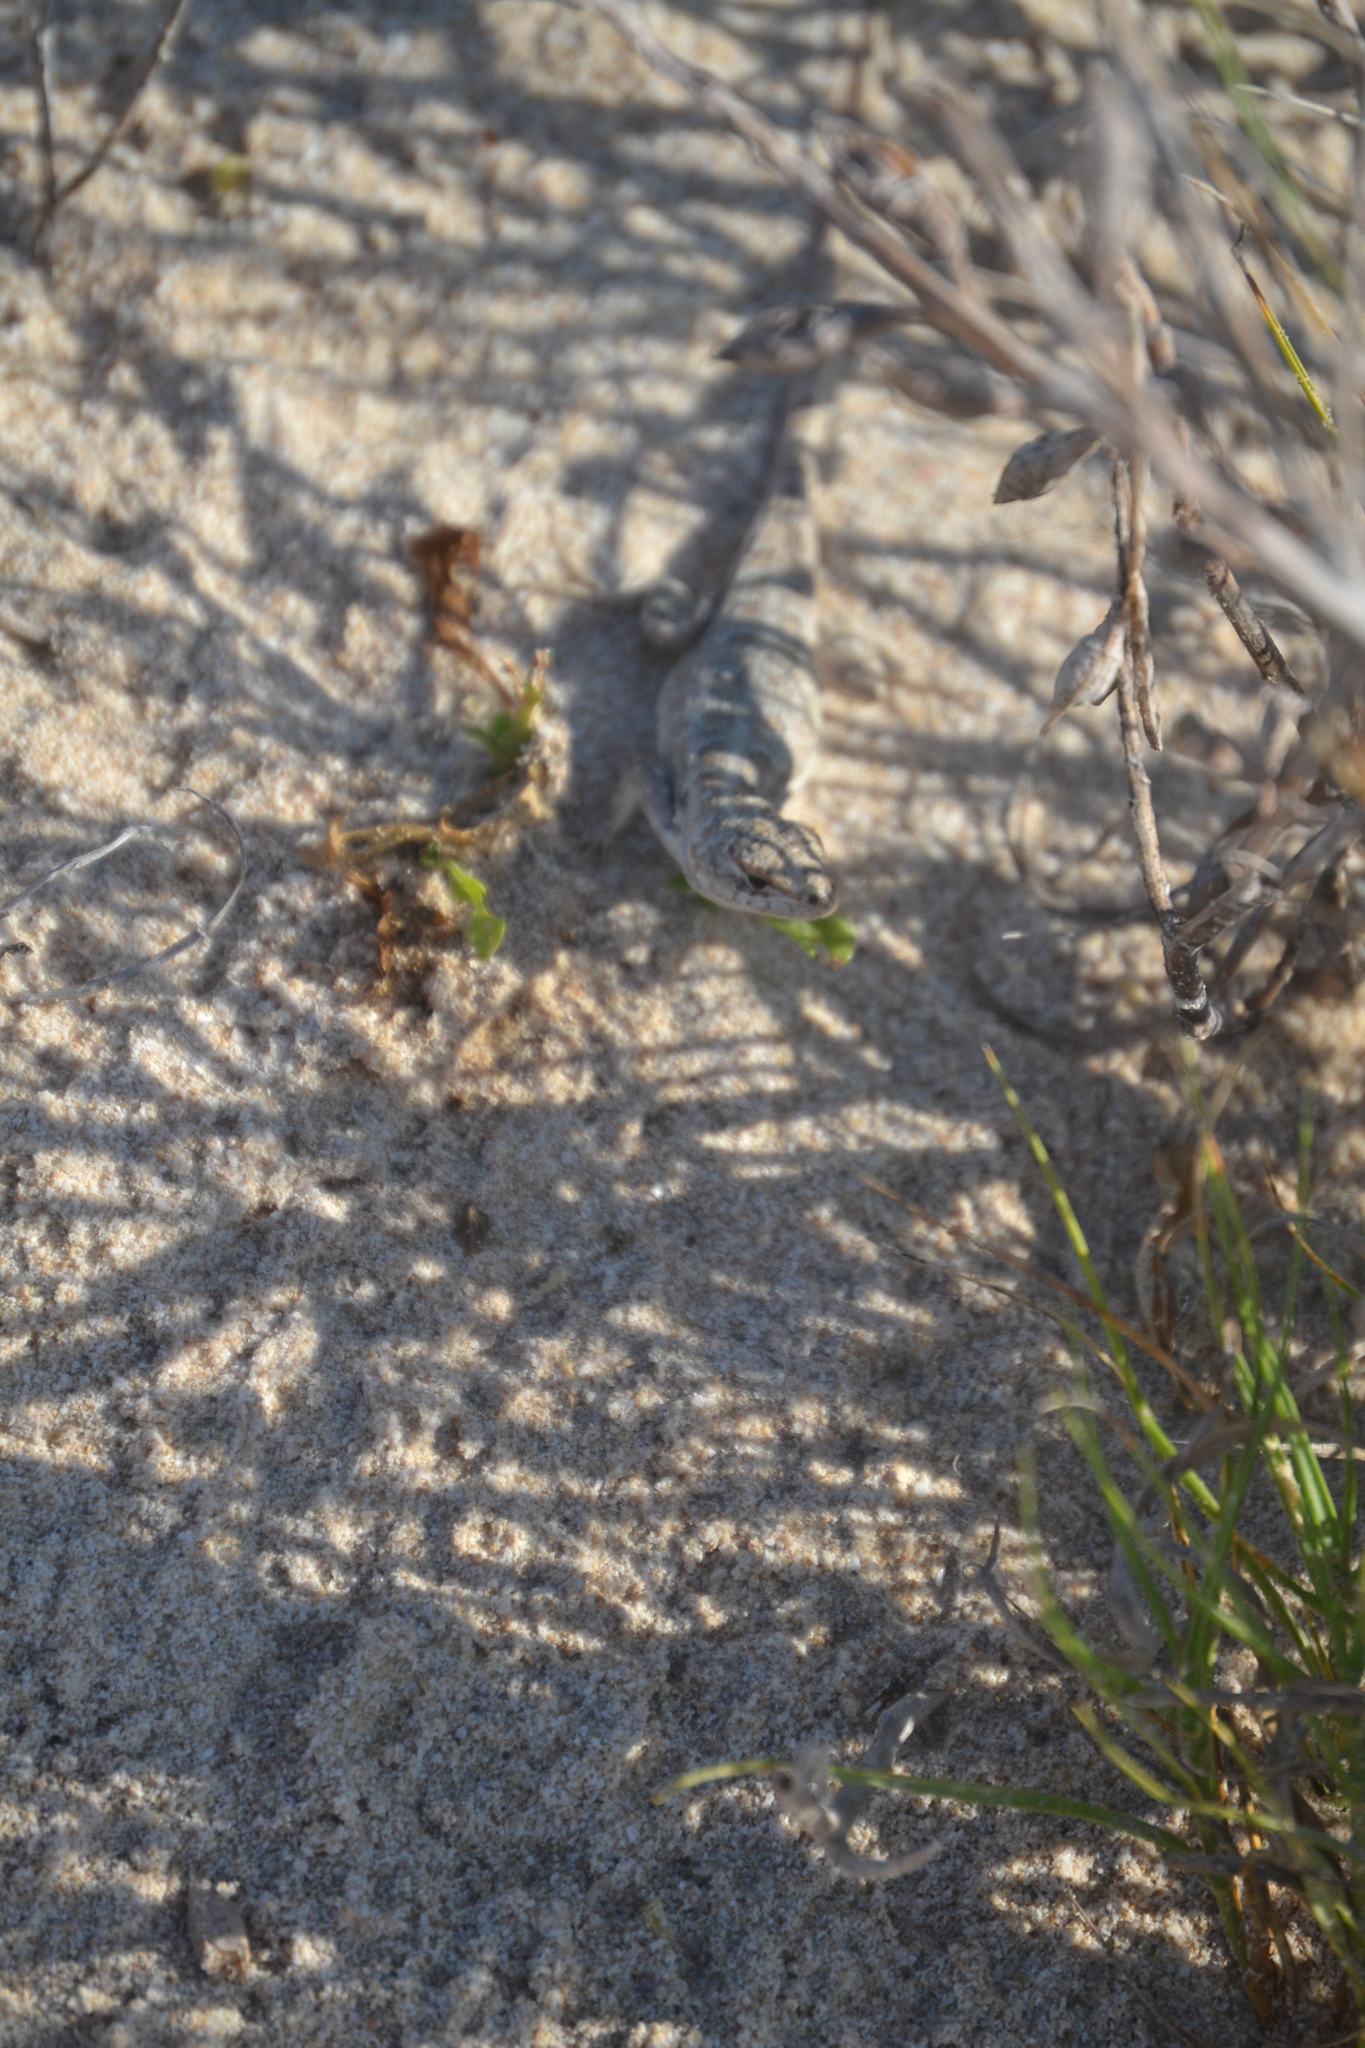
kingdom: Animalia
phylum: Chordata
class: Squamata
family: Phrynosomatidae
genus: Sceloporus
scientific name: Sceloporus cozumelae
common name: Cozumel spiny lizard
